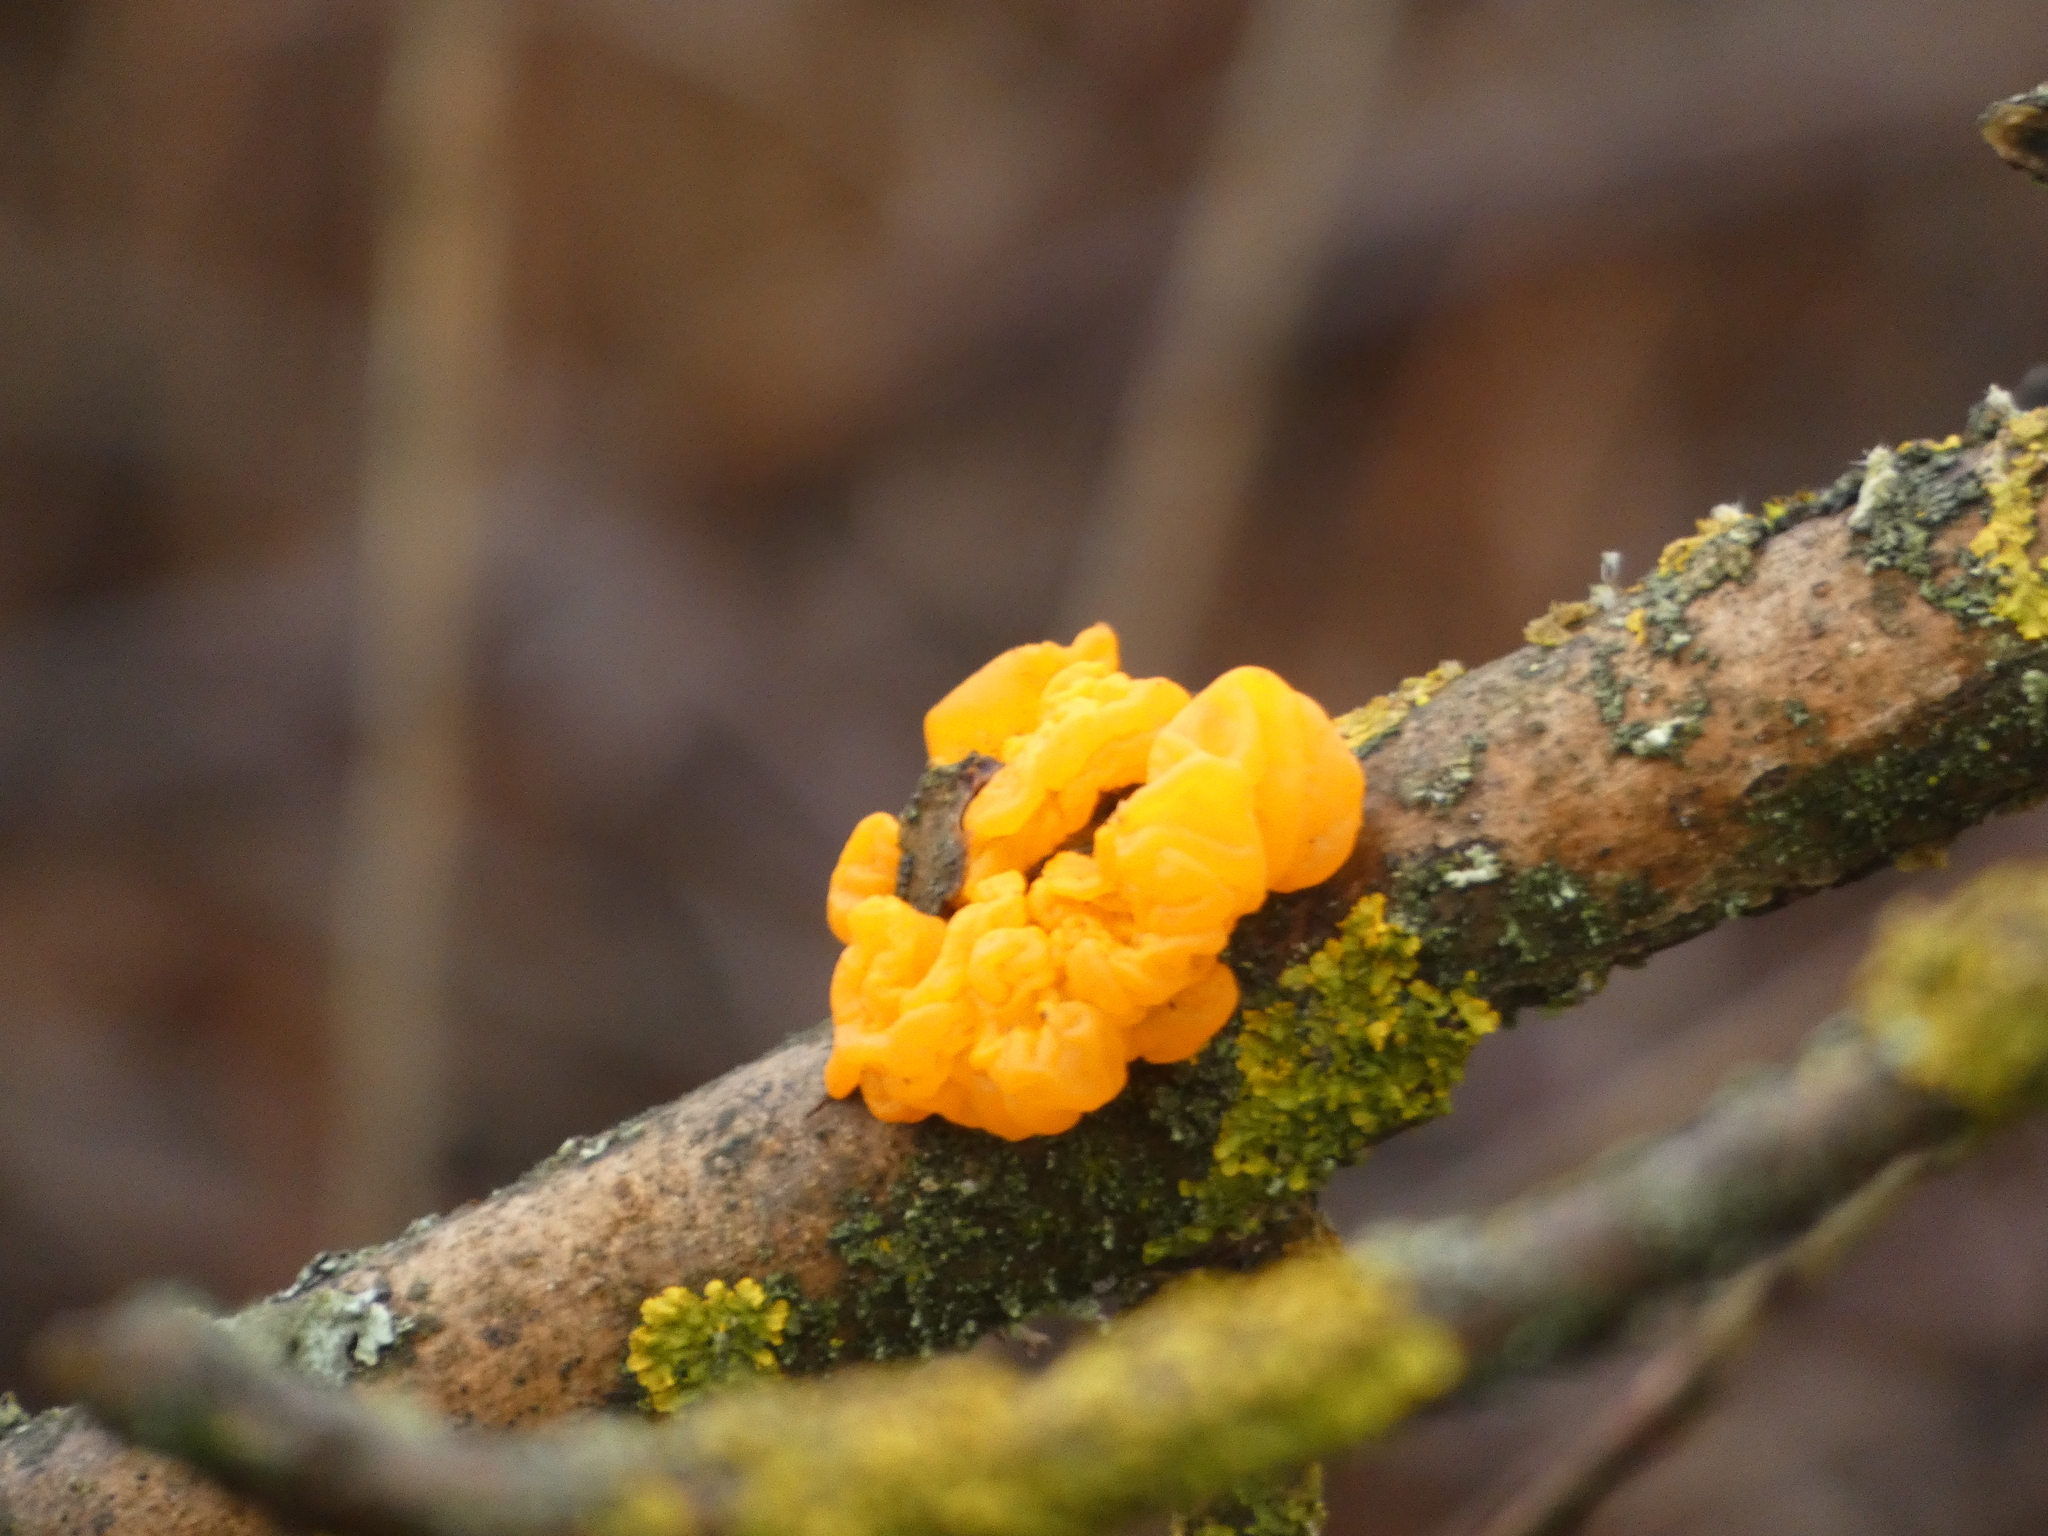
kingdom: Fungi
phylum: Basidiomycota
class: Tremellomycetes
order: Tremellales
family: Tremellaceae
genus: Tremella
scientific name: Tremella mesenterica
